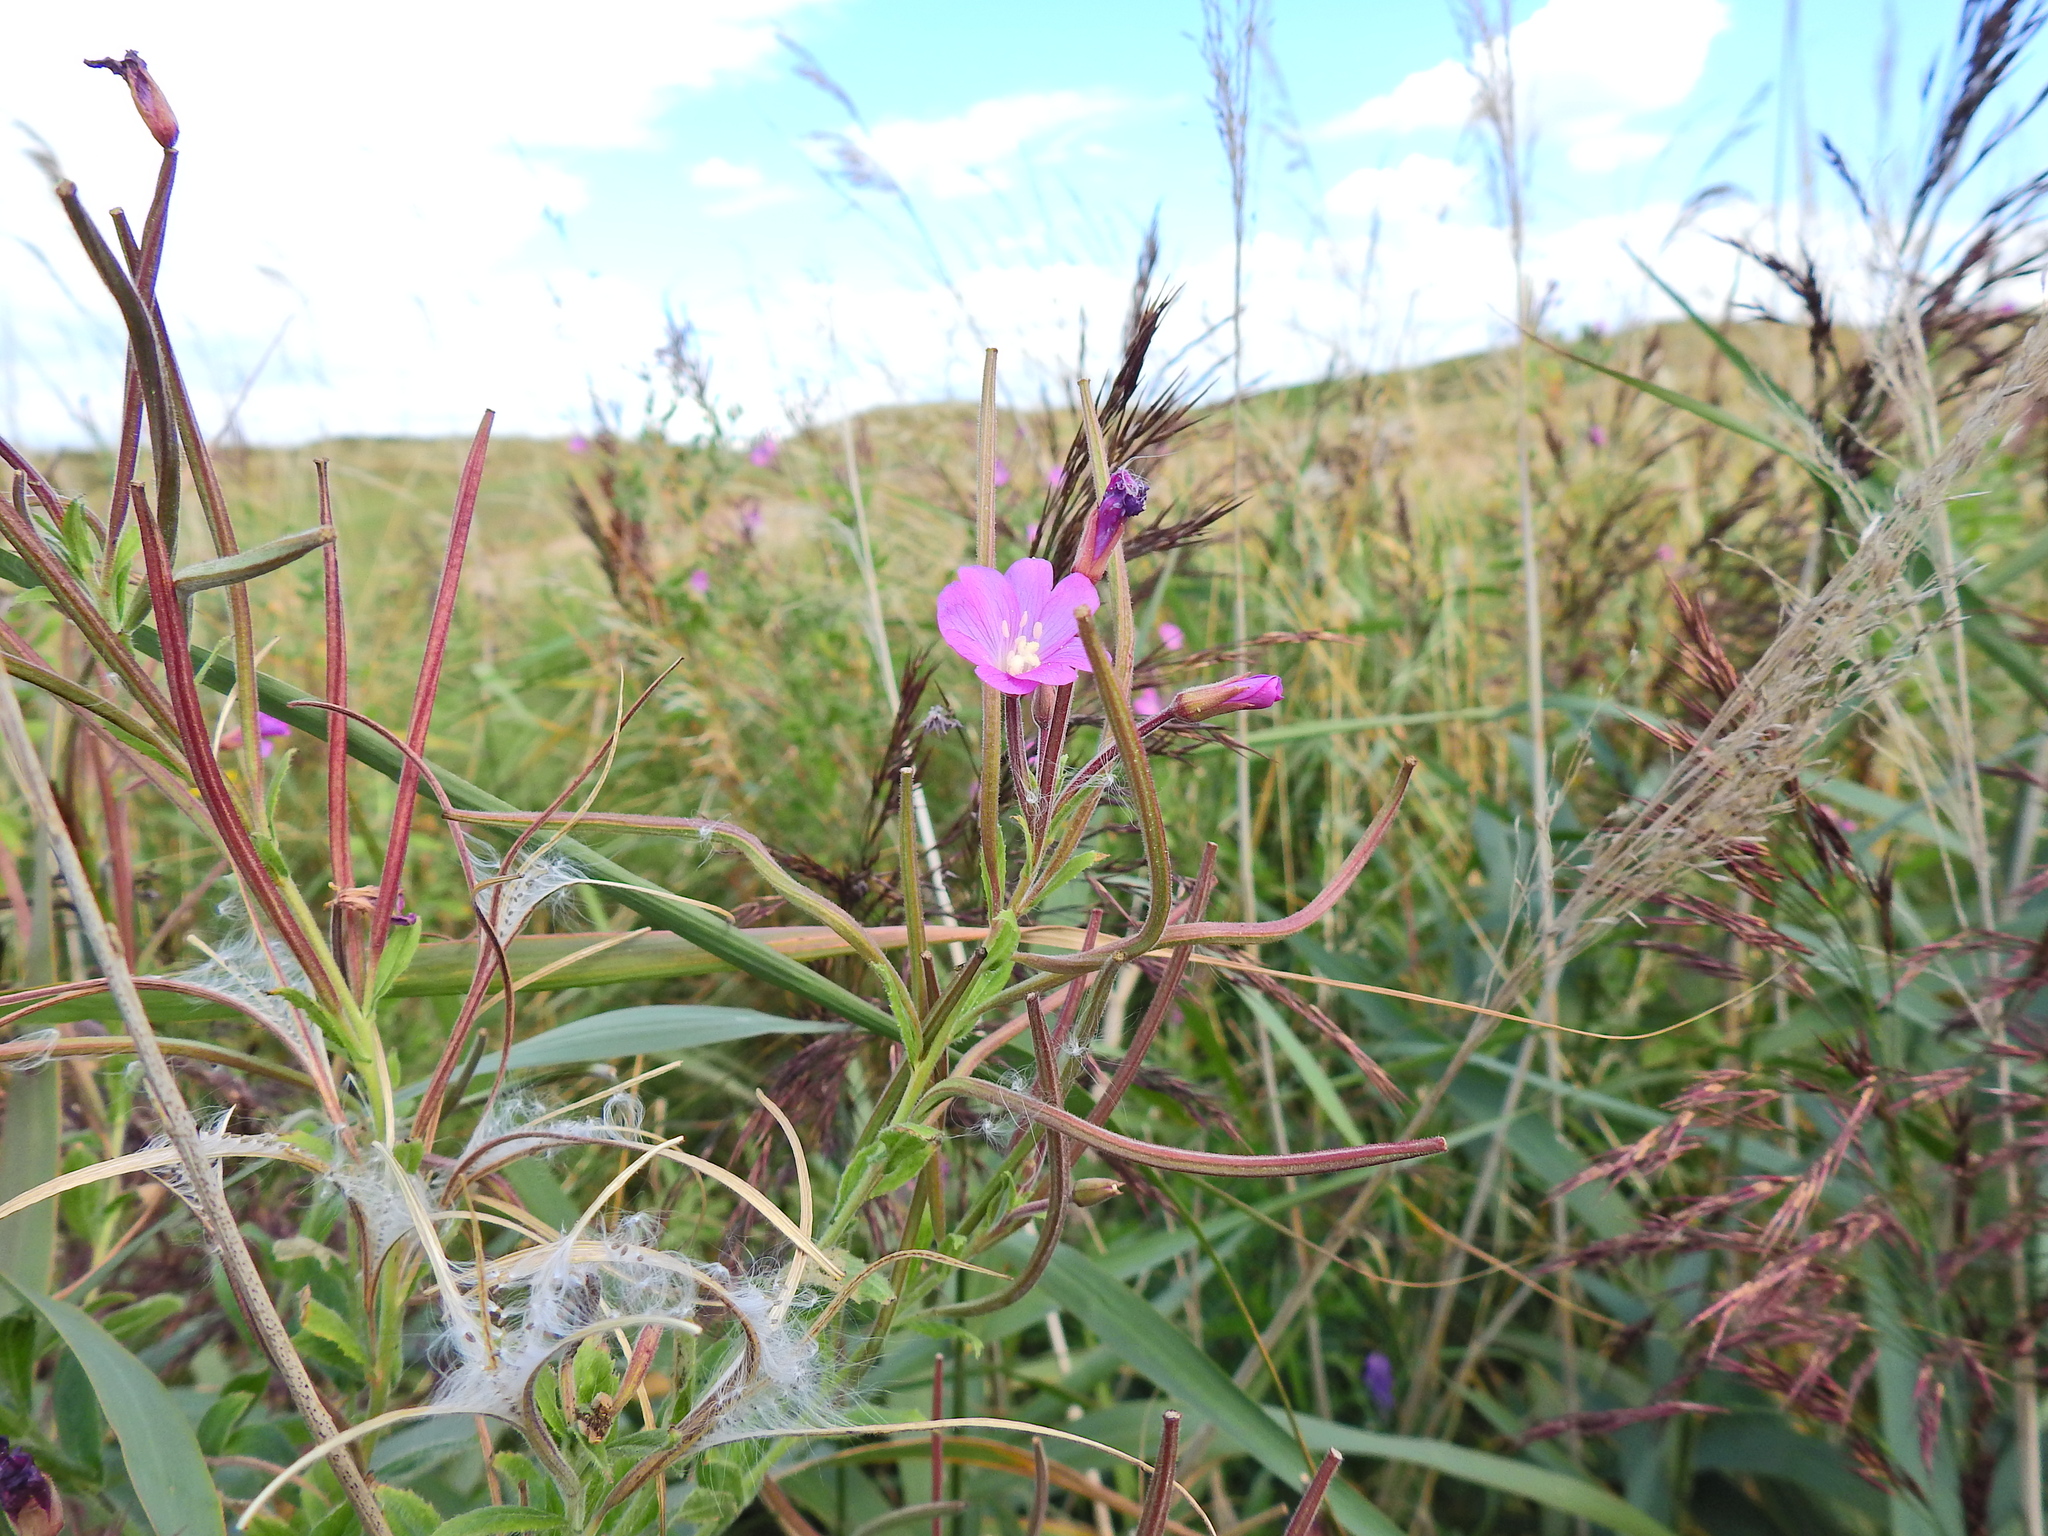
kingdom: Plantae
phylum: Tracheophyta
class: Magnoliopsida
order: Myrtales
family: Onagraceae
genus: Epilobium
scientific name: Epilobium hirsutum
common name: Great willowherb
